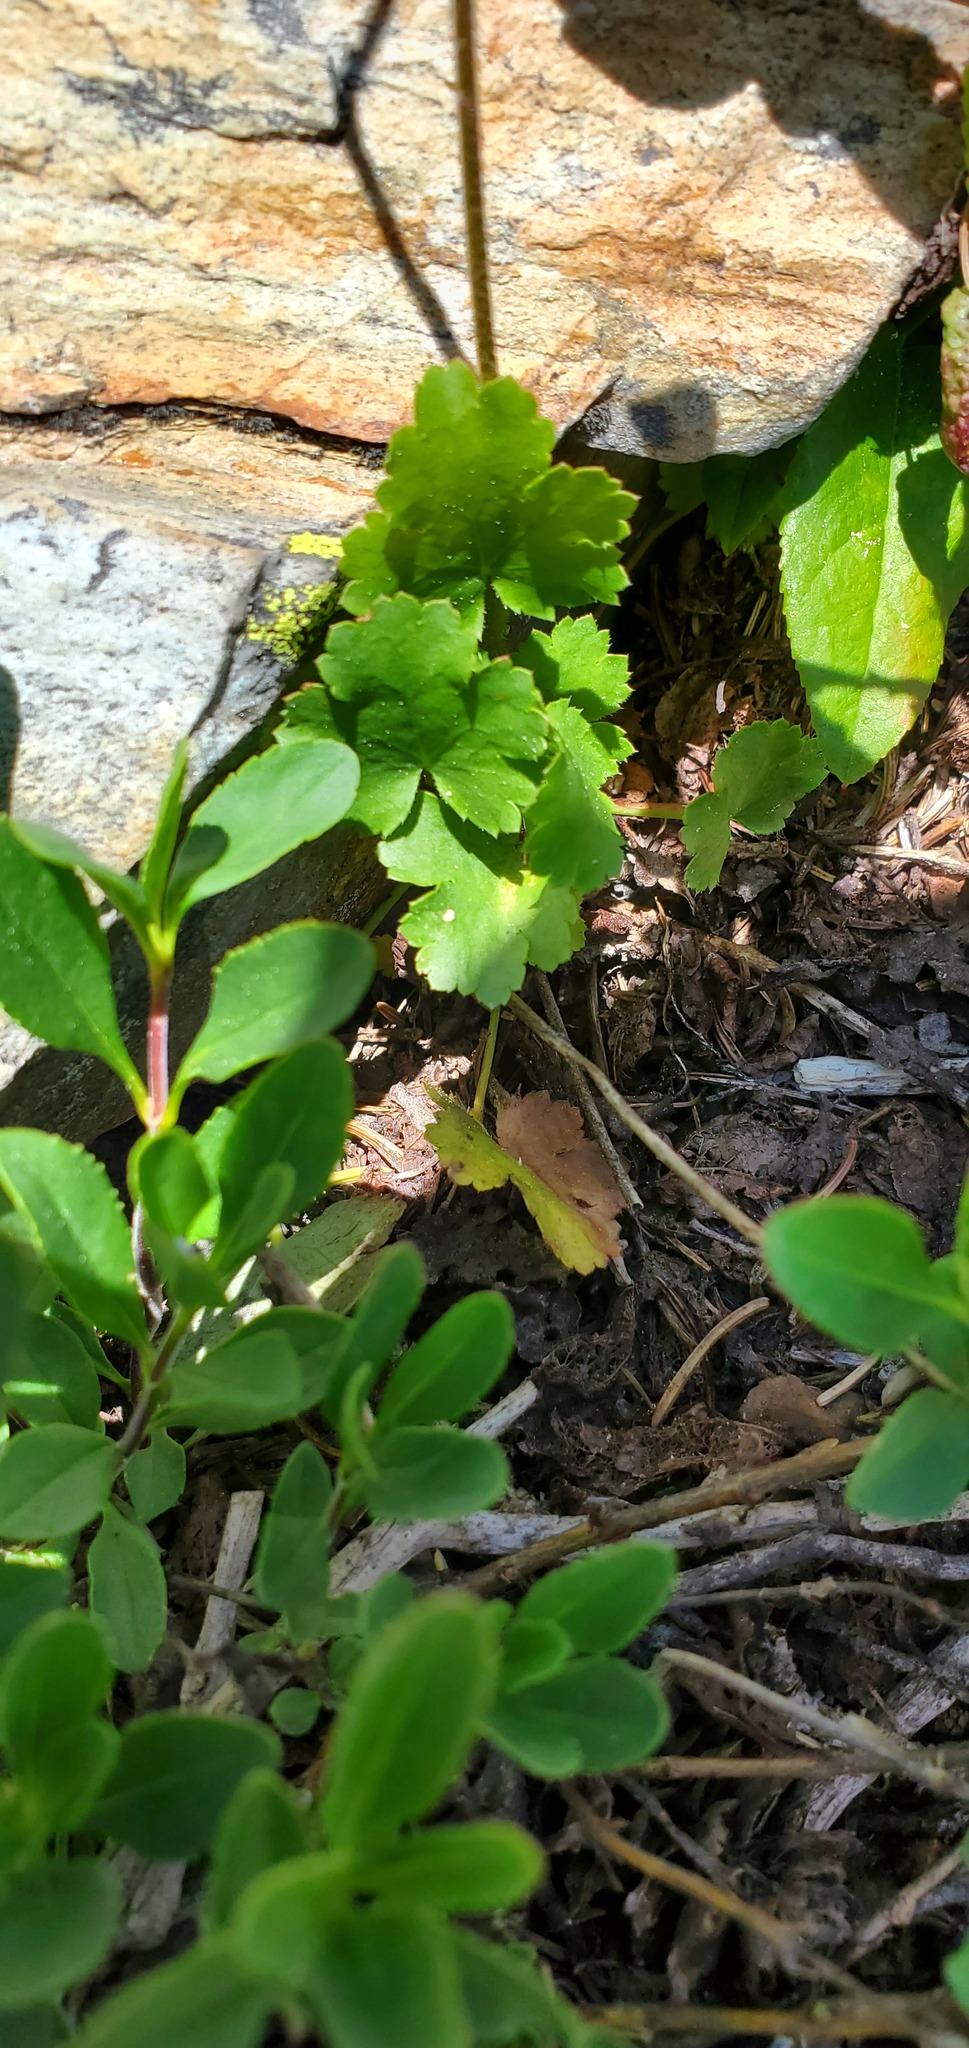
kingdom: Plantae
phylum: Tracheophyta
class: Magnoliopsida
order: Saxifragales
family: Saxifragaceae
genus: Heuchera
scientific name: Heuchera cylindrica
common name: Mat alumroot
